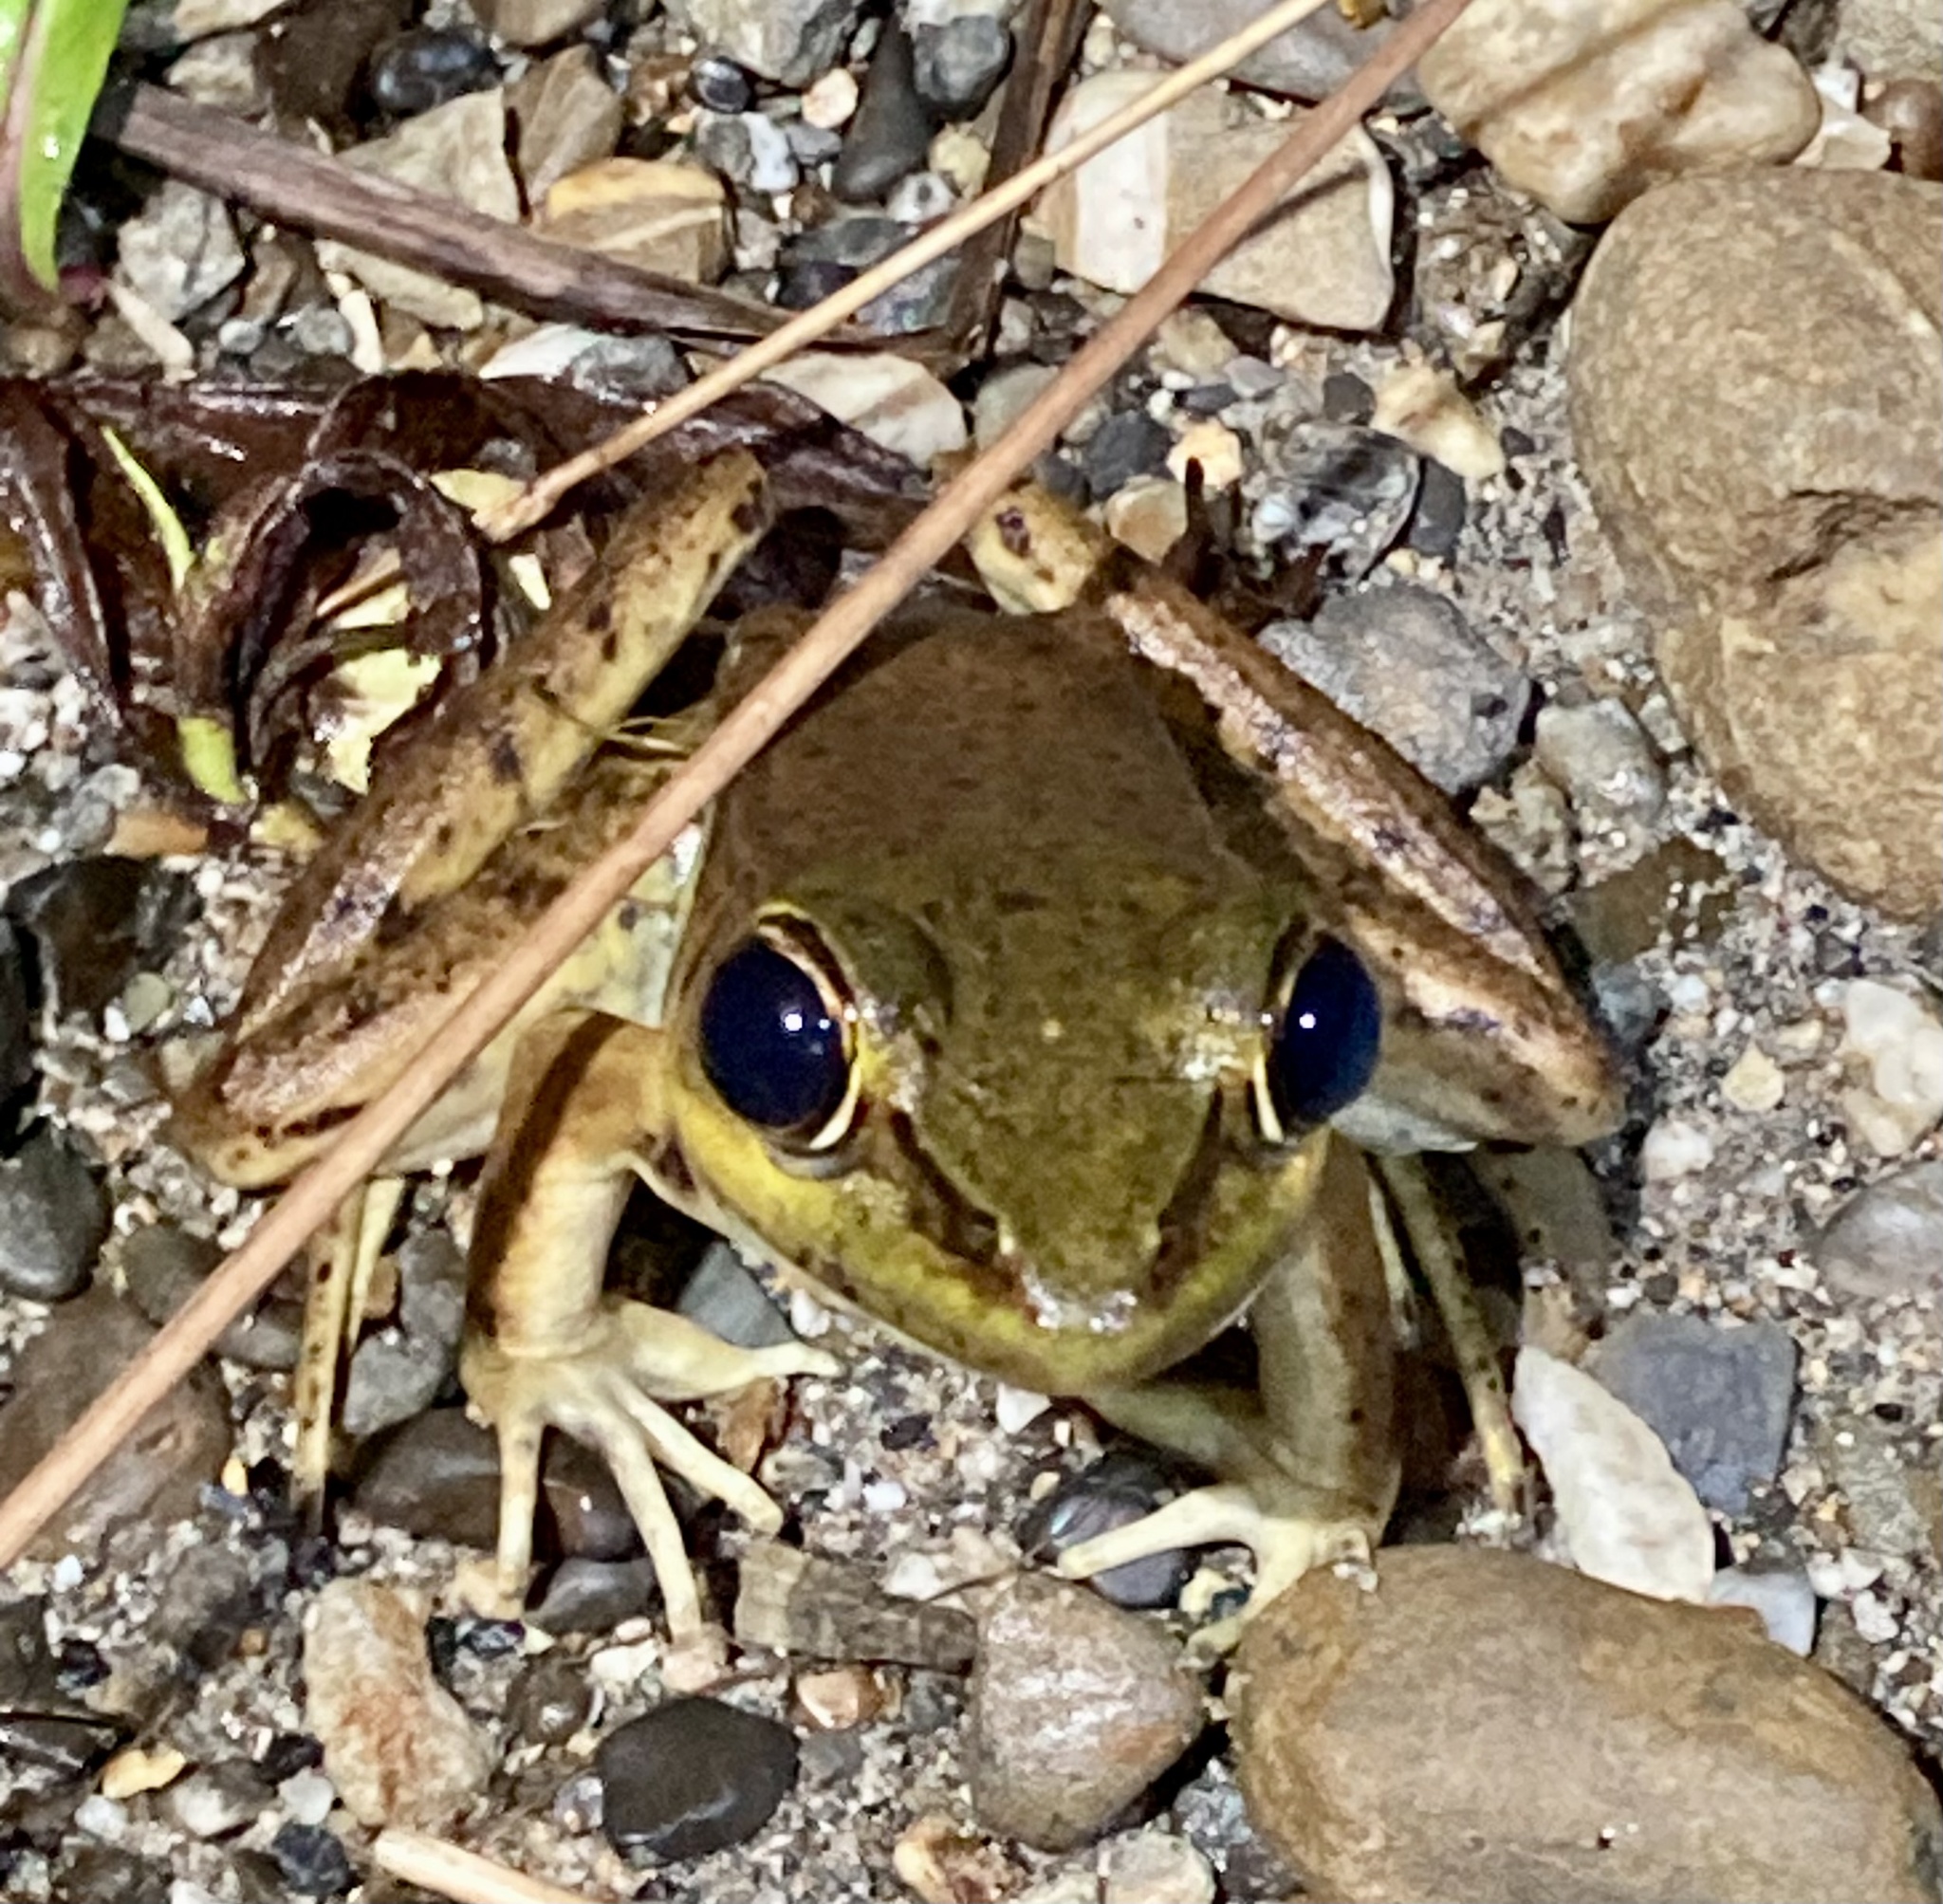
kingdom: Animalia
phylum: Chordata
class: Amphibia
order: Anura
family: Ranidae
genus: Lithobates
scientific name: Lithobates vaillanti
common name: Vaillant's frog
